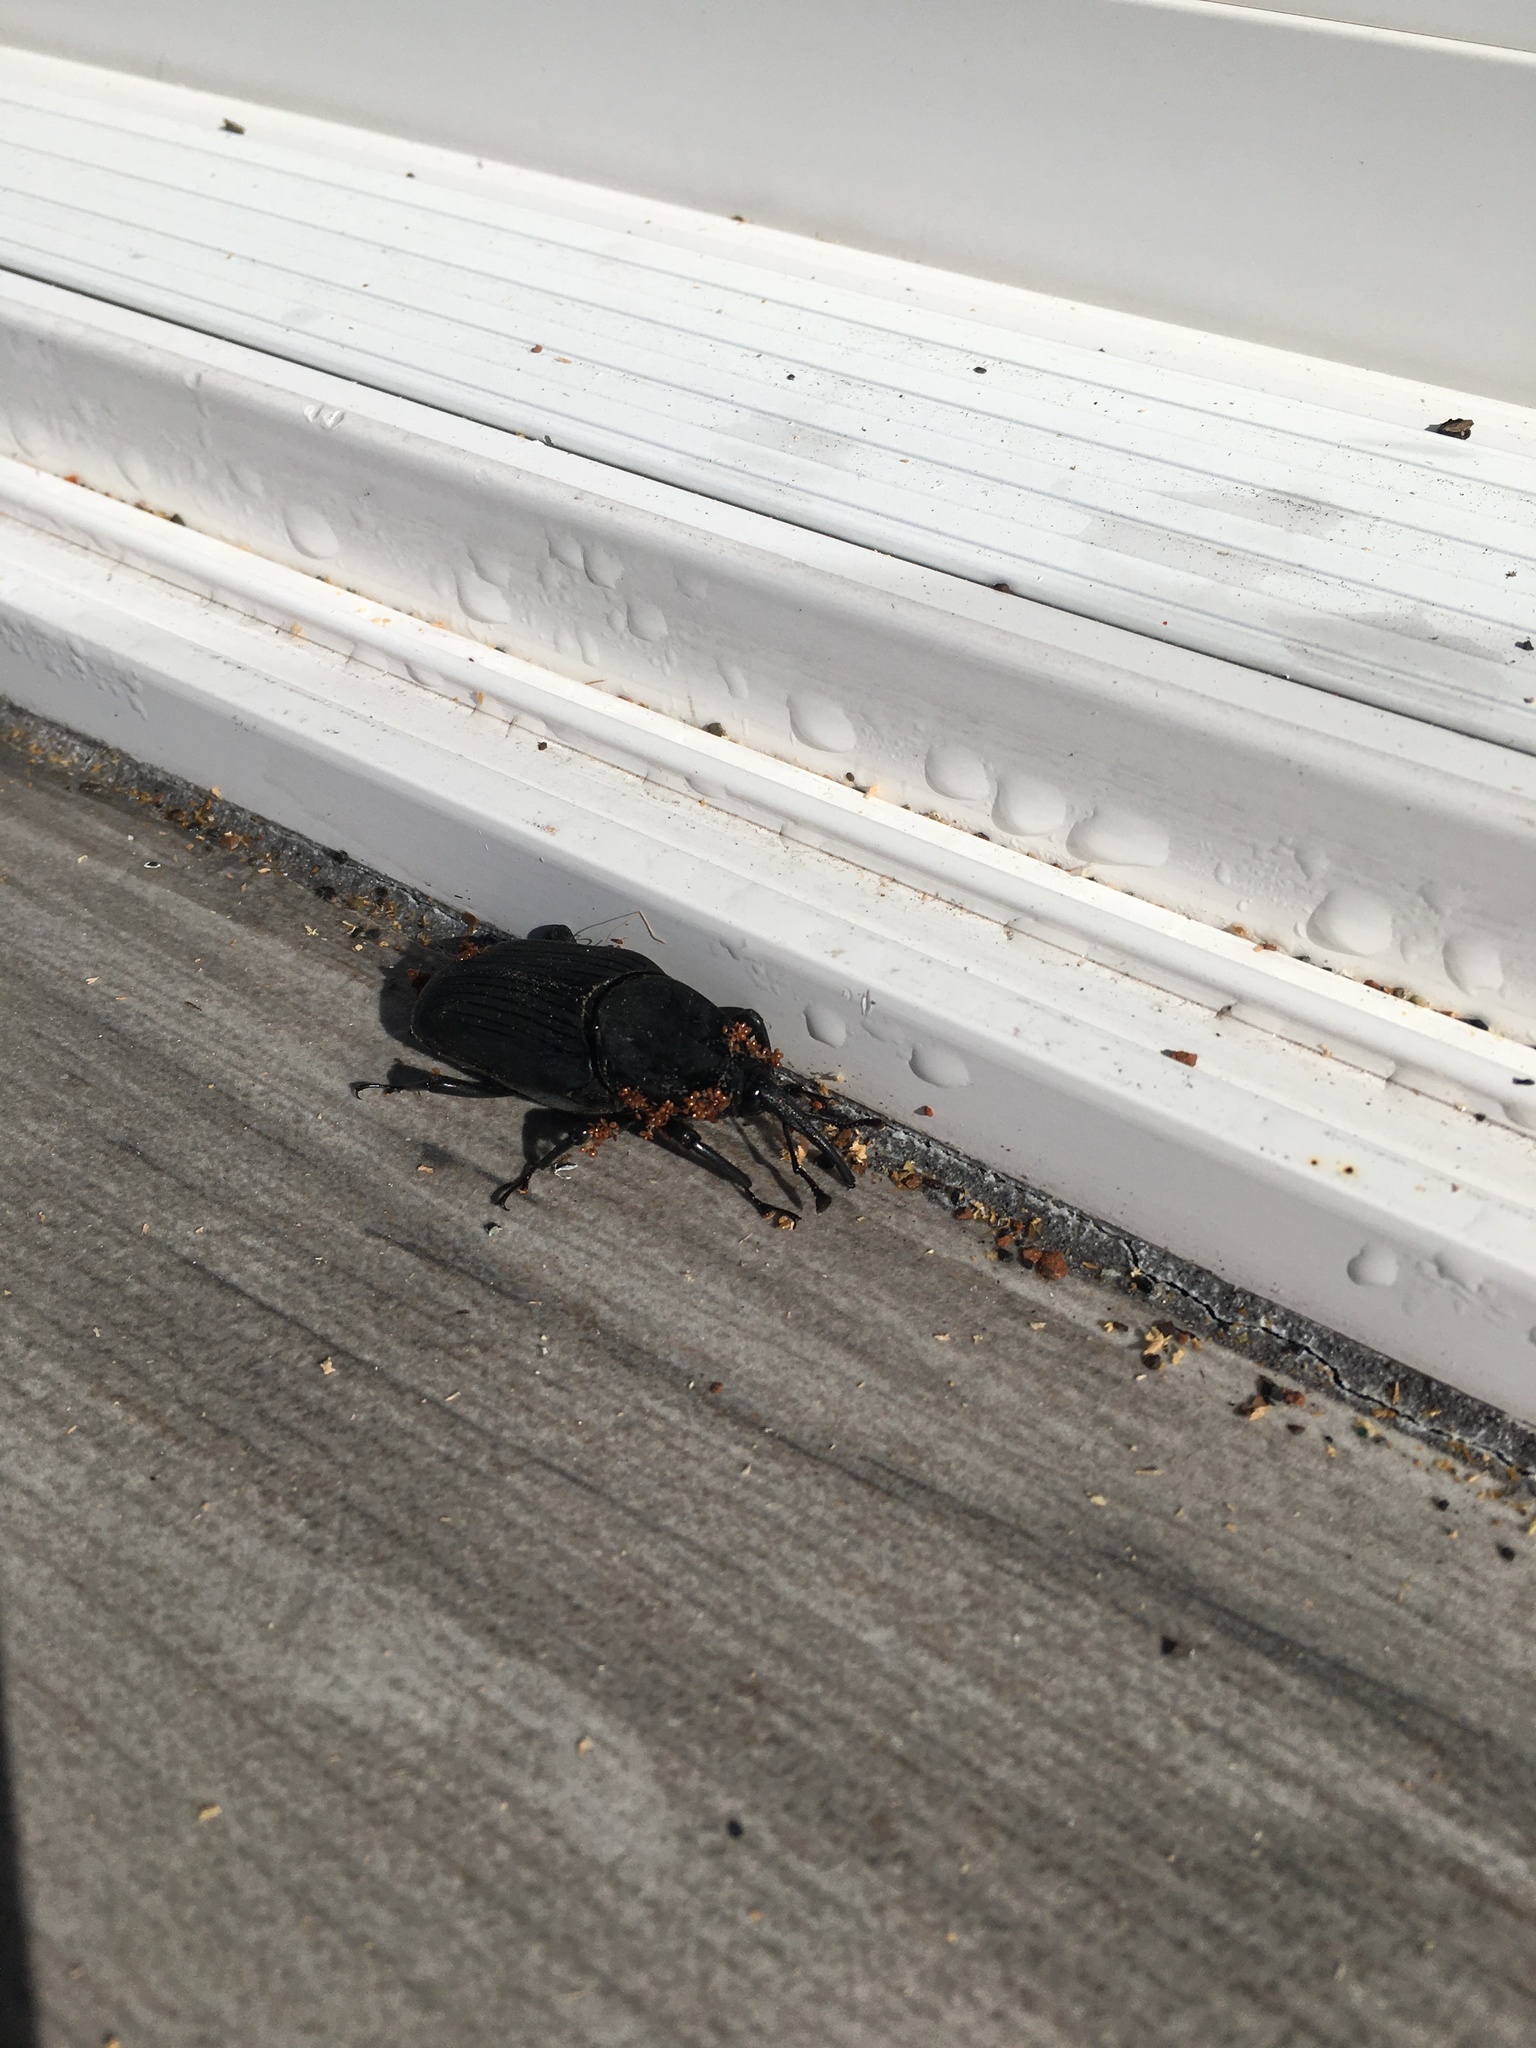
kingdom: Animalia
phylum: Arthropoda
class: Insecta
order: Coleoptera
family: Dryophthoridae
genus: Rhynchophorus
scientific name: Rhynchophorus palmarum
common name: Palm weevil
